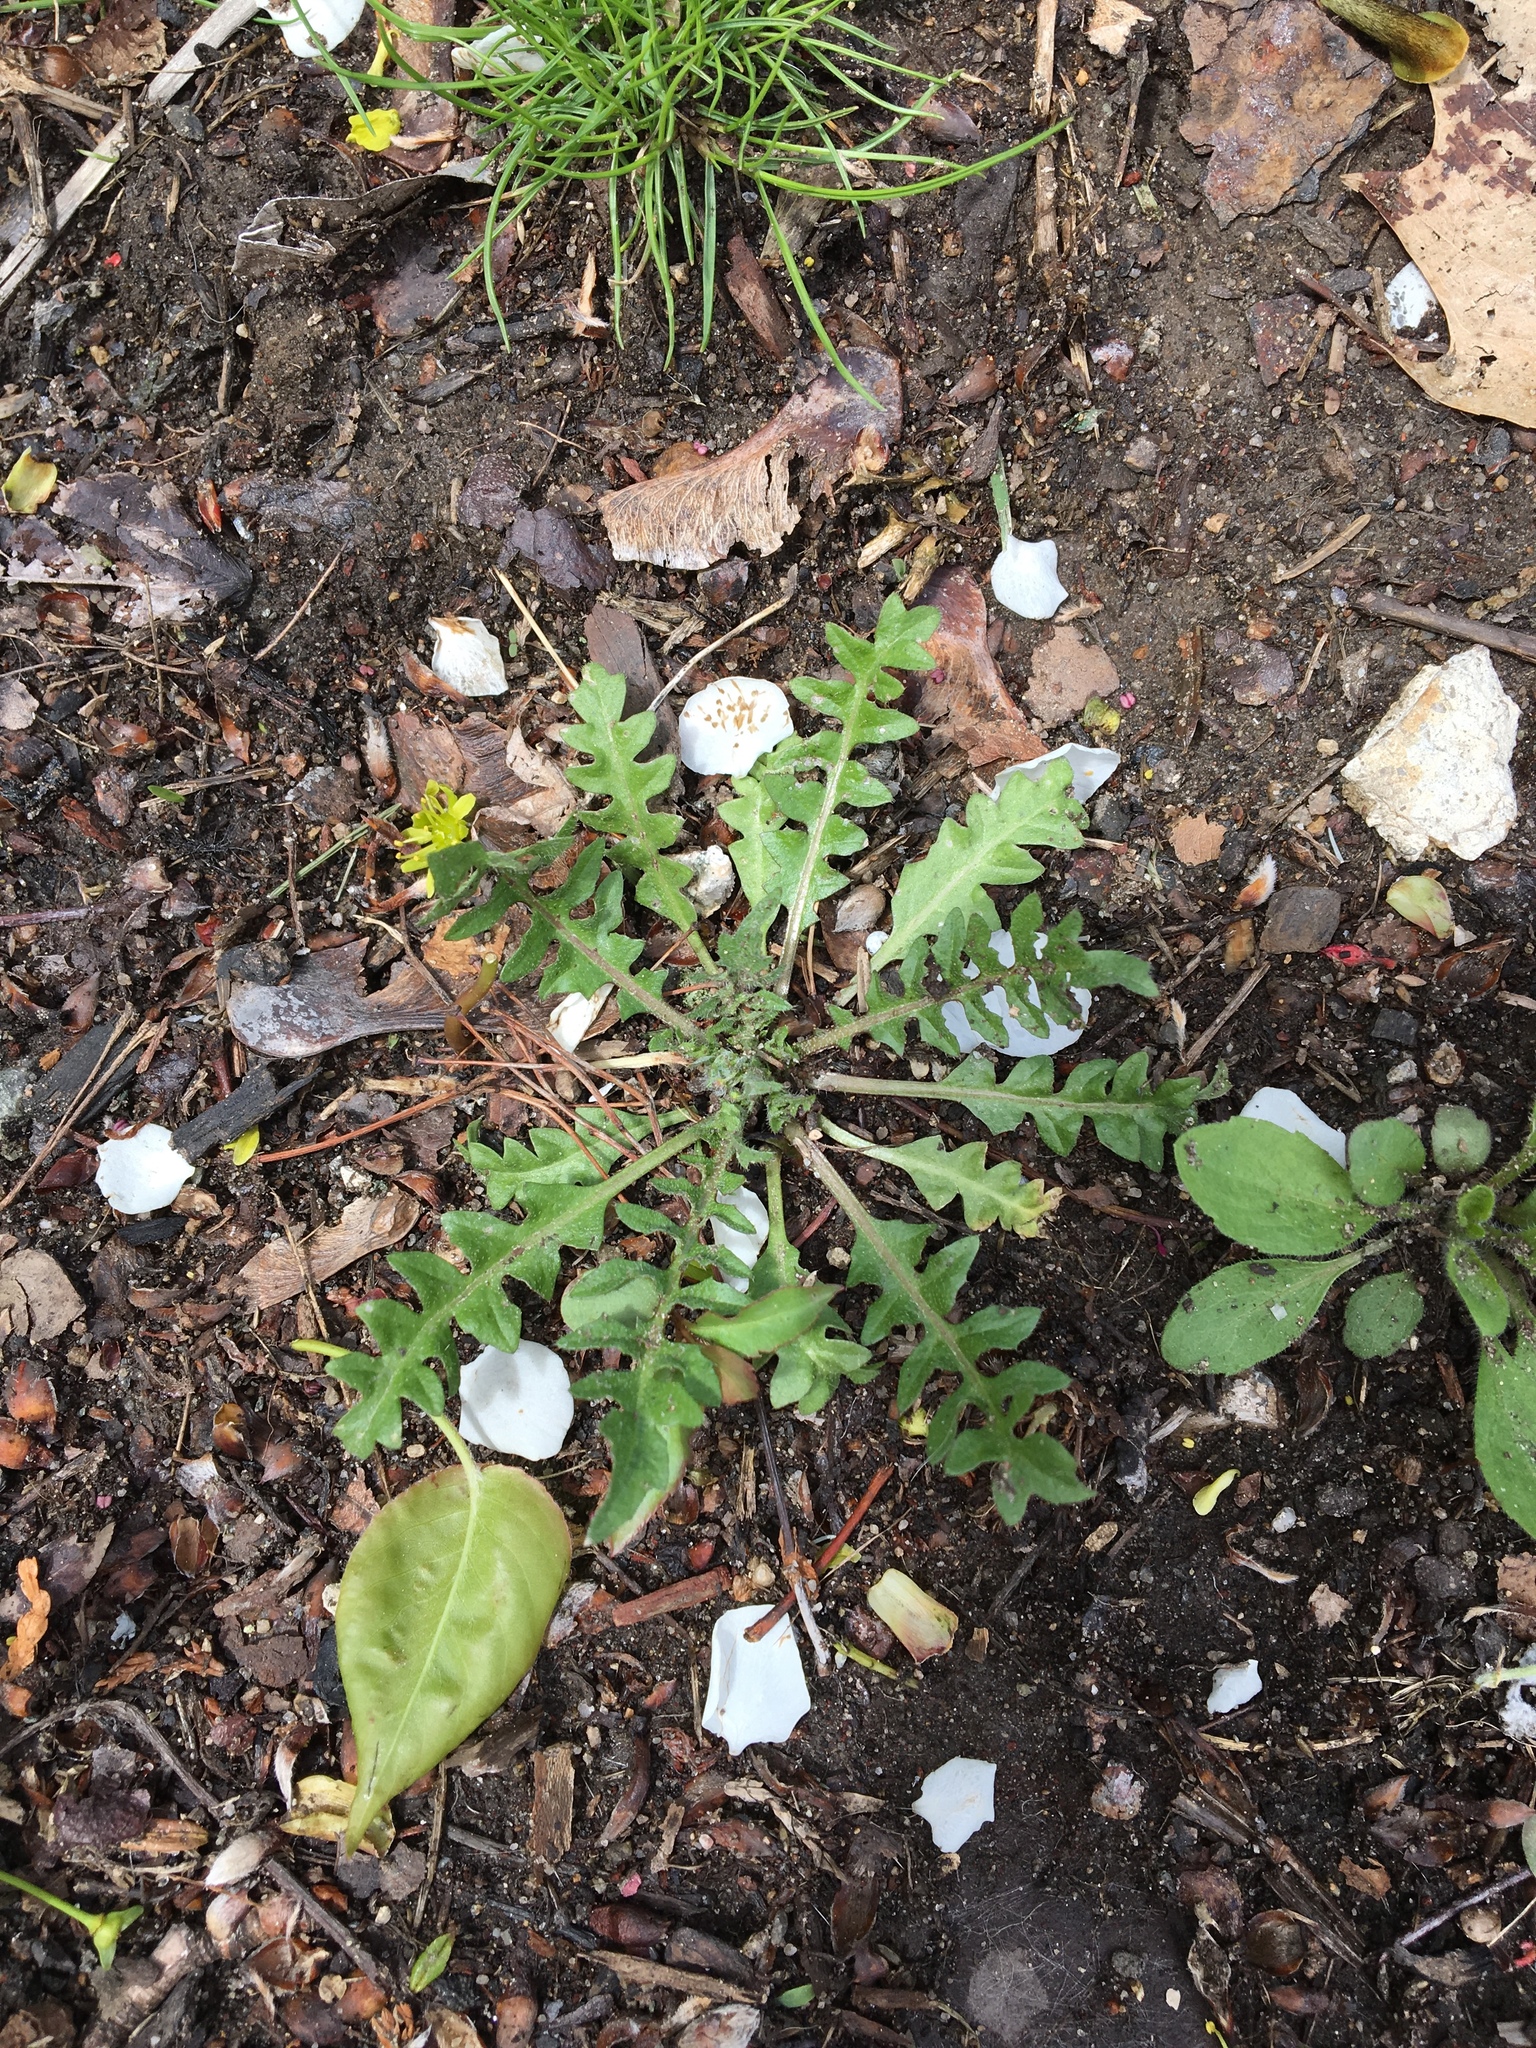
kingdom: Plantae
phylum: Tracheophyta
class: Magnoliopsida
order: Asterales
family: Asteraceae
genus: Taraxacum
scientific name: Taraxacum officinale
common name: Common dandelion
